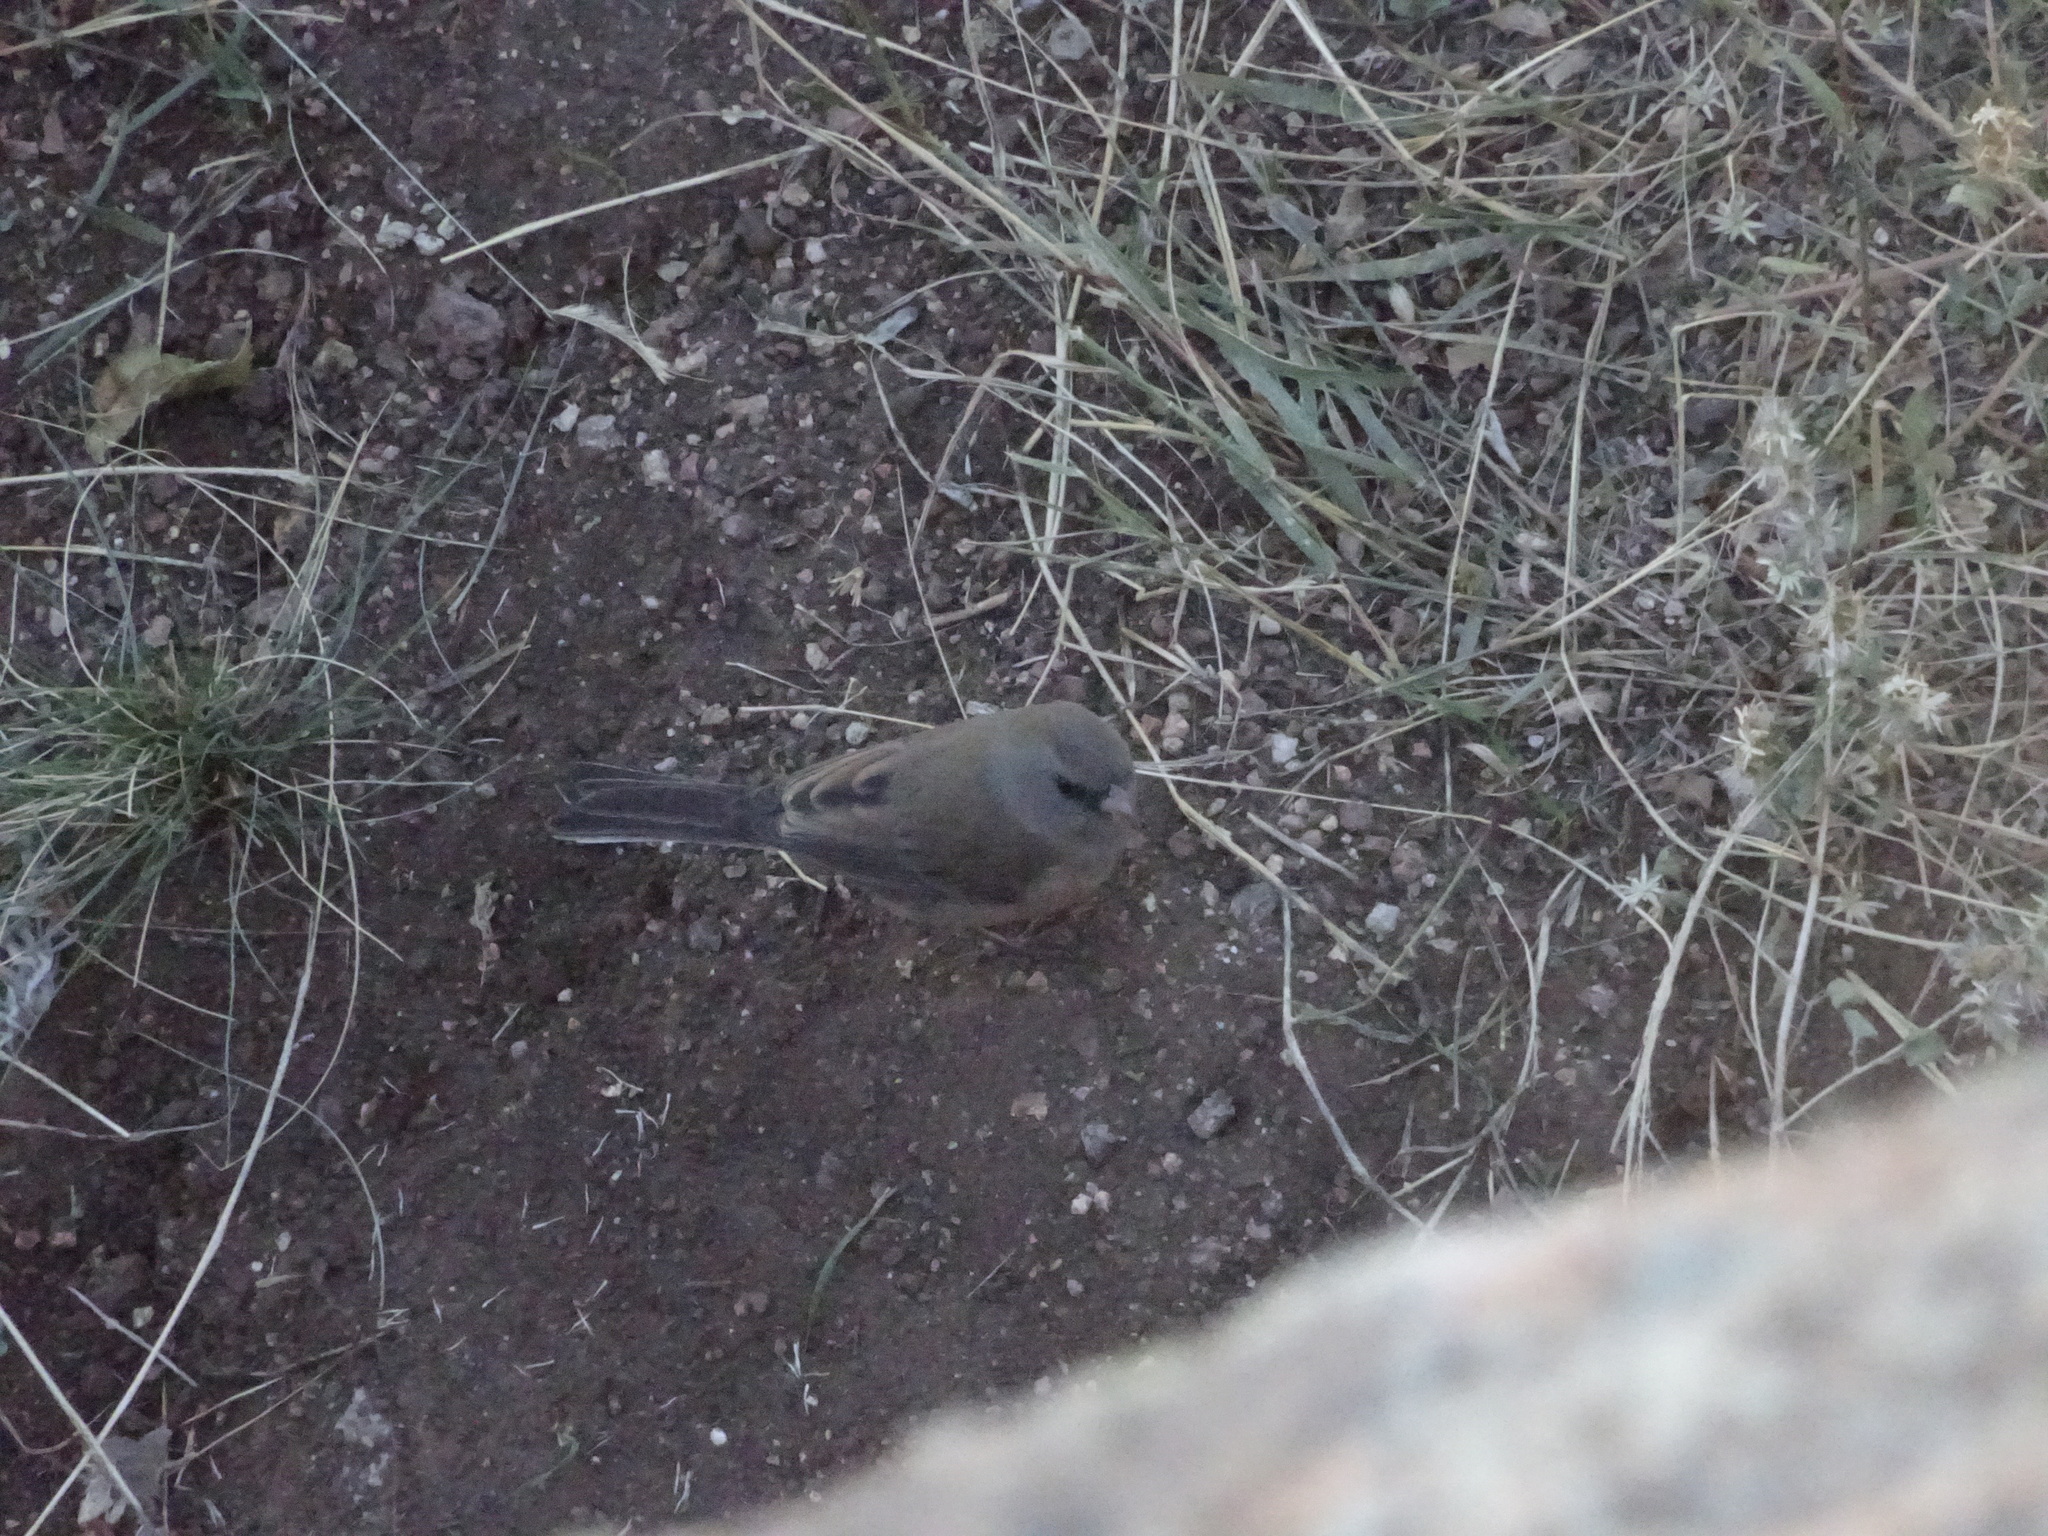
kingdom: Animalia
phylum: Chordata
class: Aves
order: Passeriformes
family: Passerellidae
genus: Junco
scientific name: Junco hyemalis
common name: Dark-eyed junco
